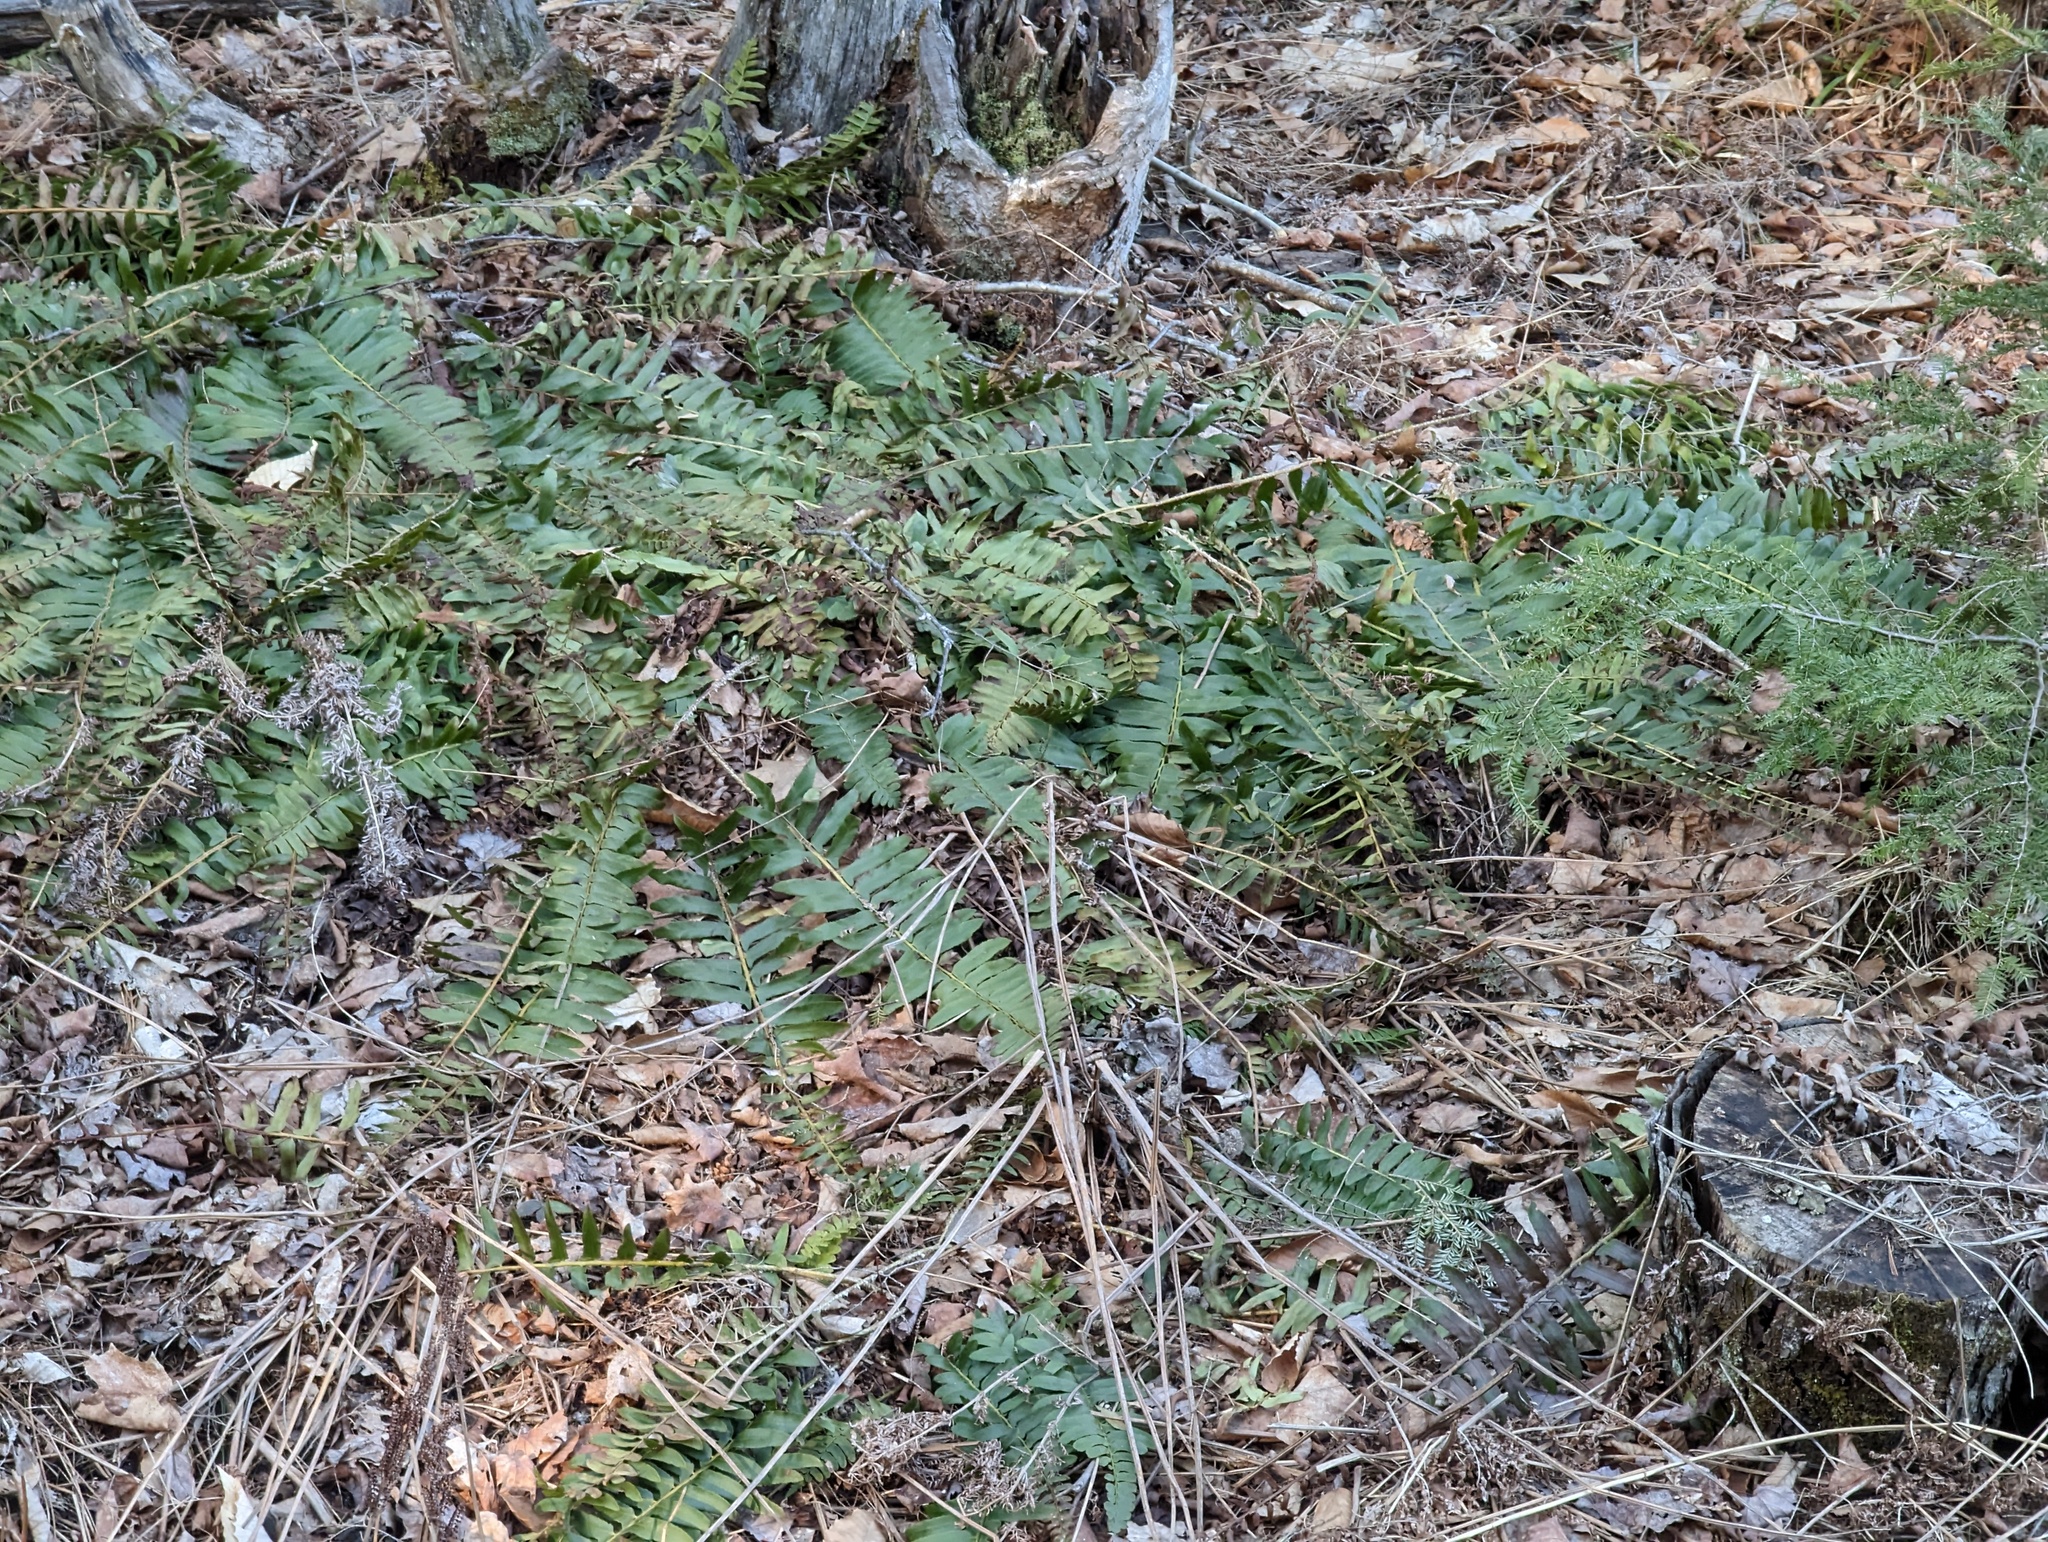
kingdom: Plantae
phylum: Tracheophyta
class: Polypodiopsida
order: Polypodiales
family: Dryopteridaceae
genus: Polystichum
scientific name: Polystichum acrostichoides
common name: Christmas fern
